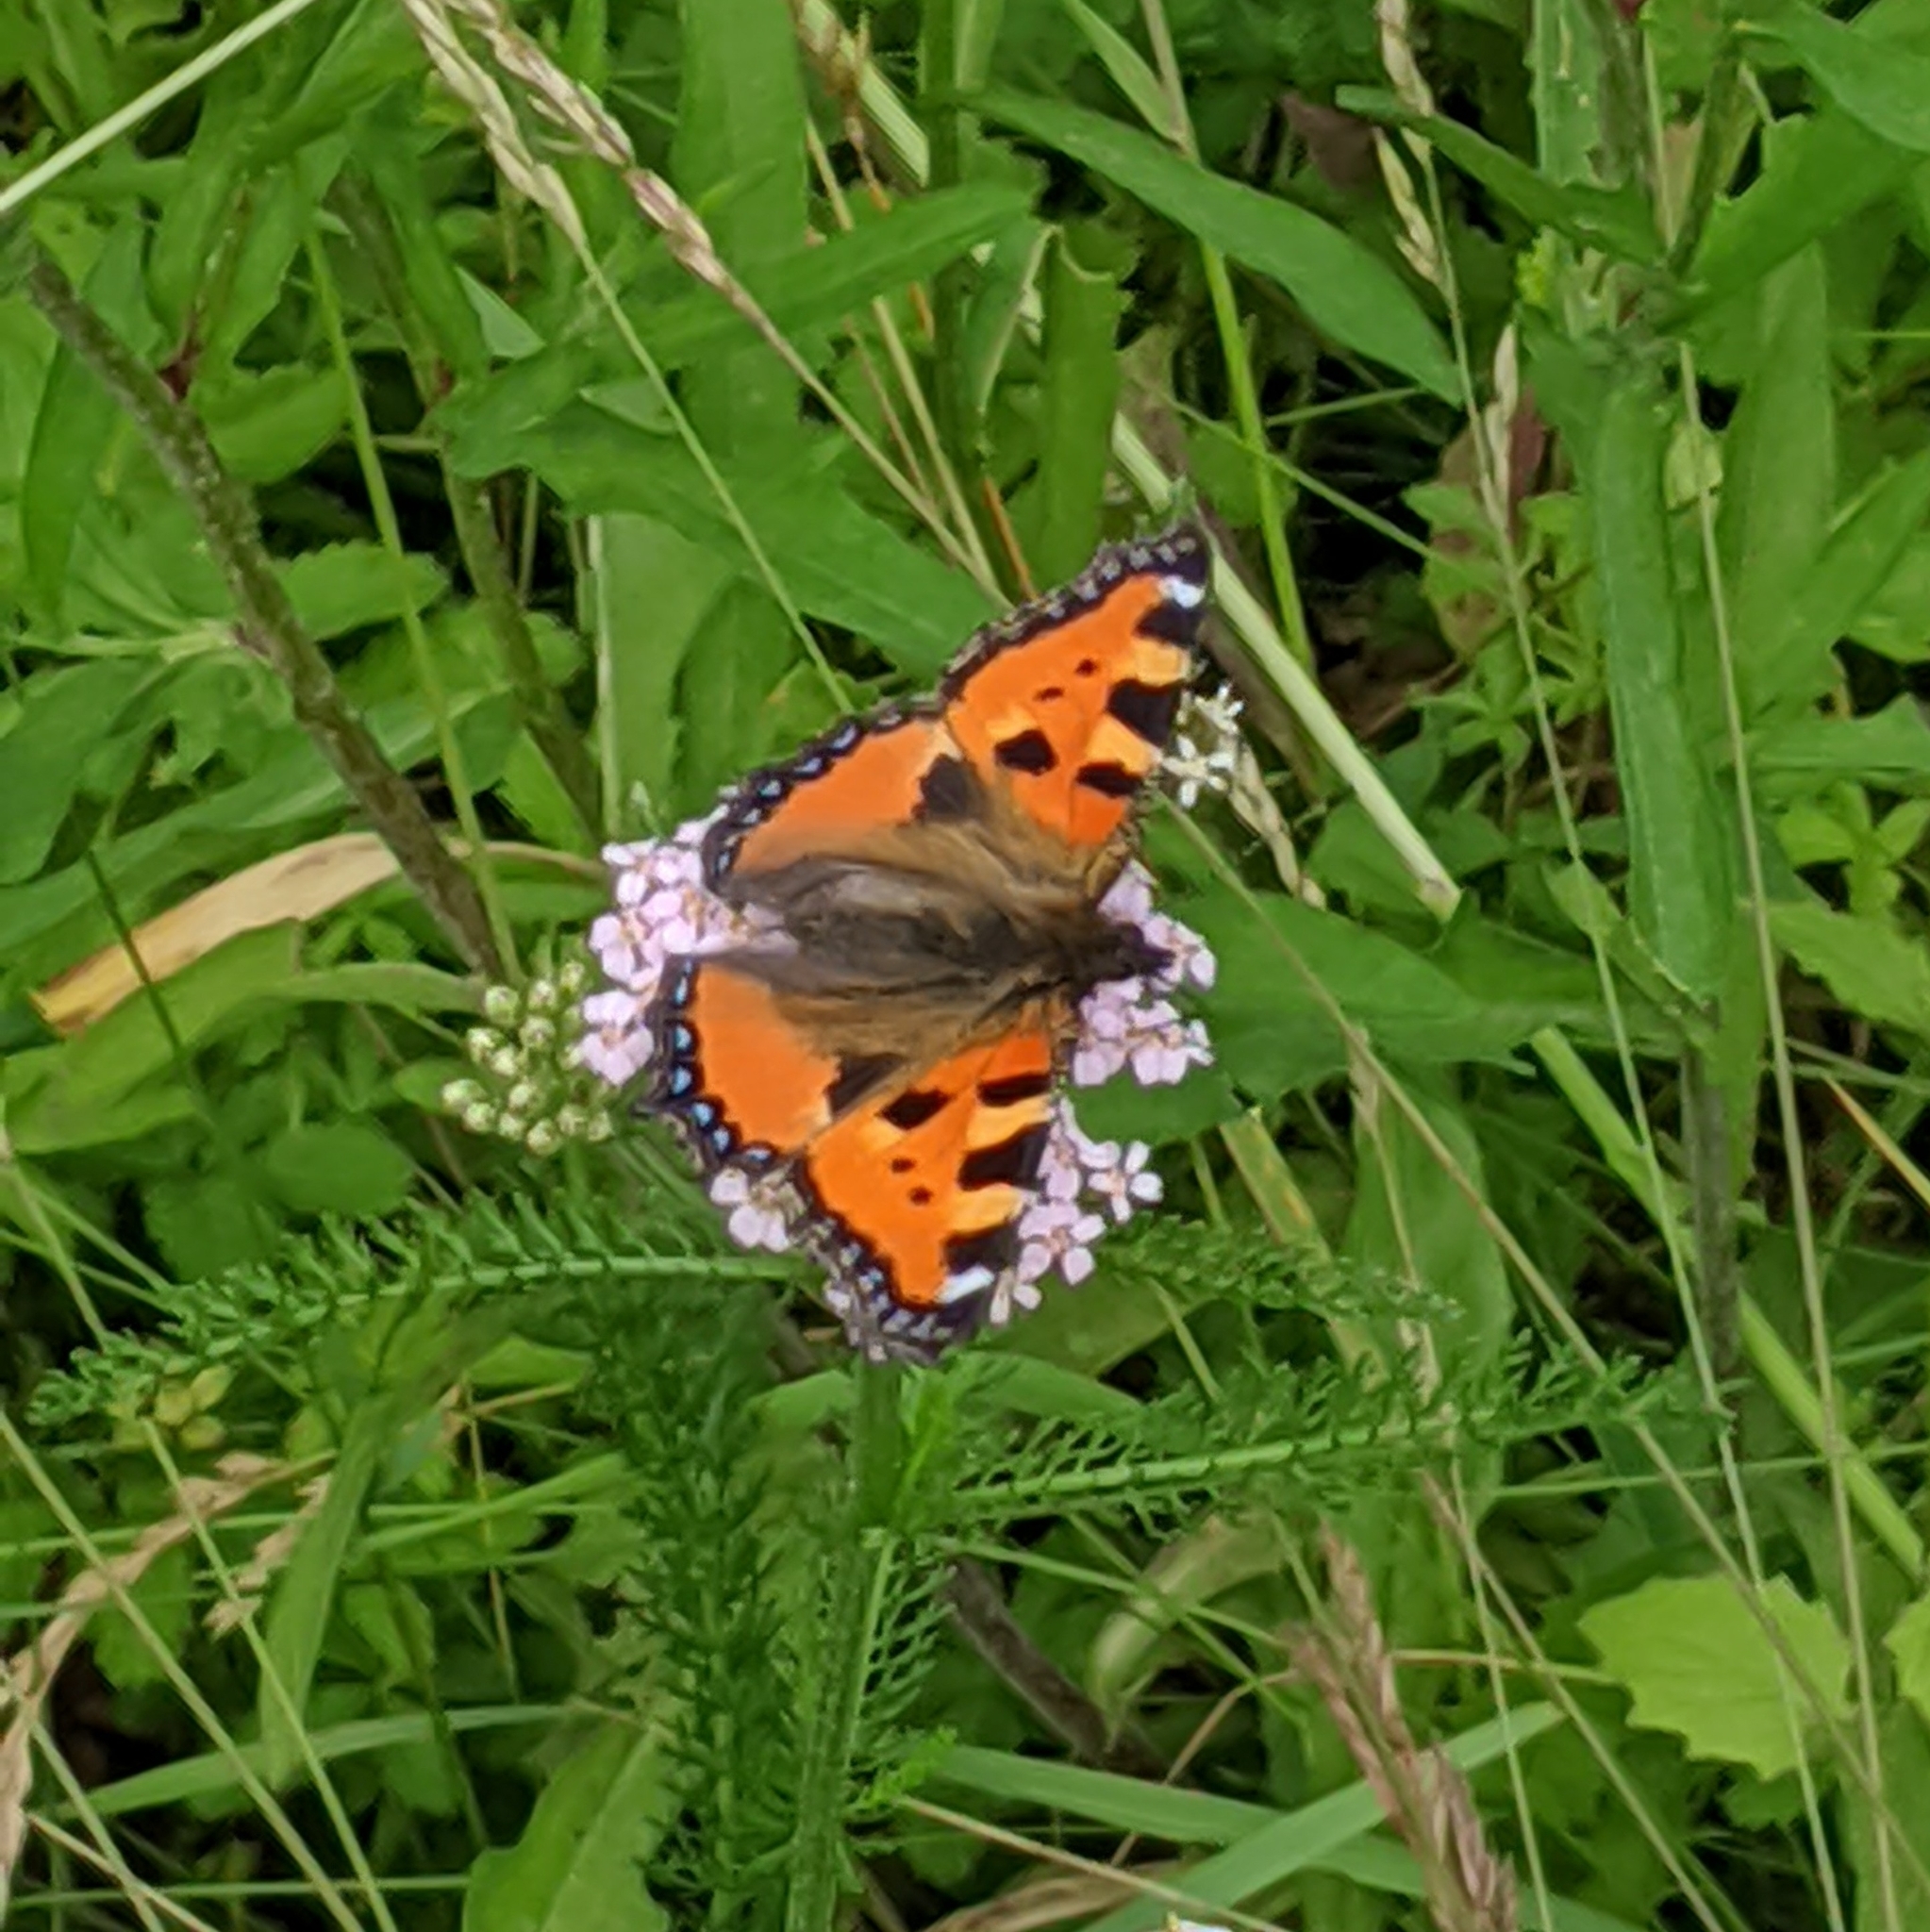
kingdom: Animalia
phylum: Arthropoda
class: Insecta
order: Lepidoptera
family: Nymphalidae
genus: Aglais
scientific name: Aglais urticae
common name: Small tortoiseshell
